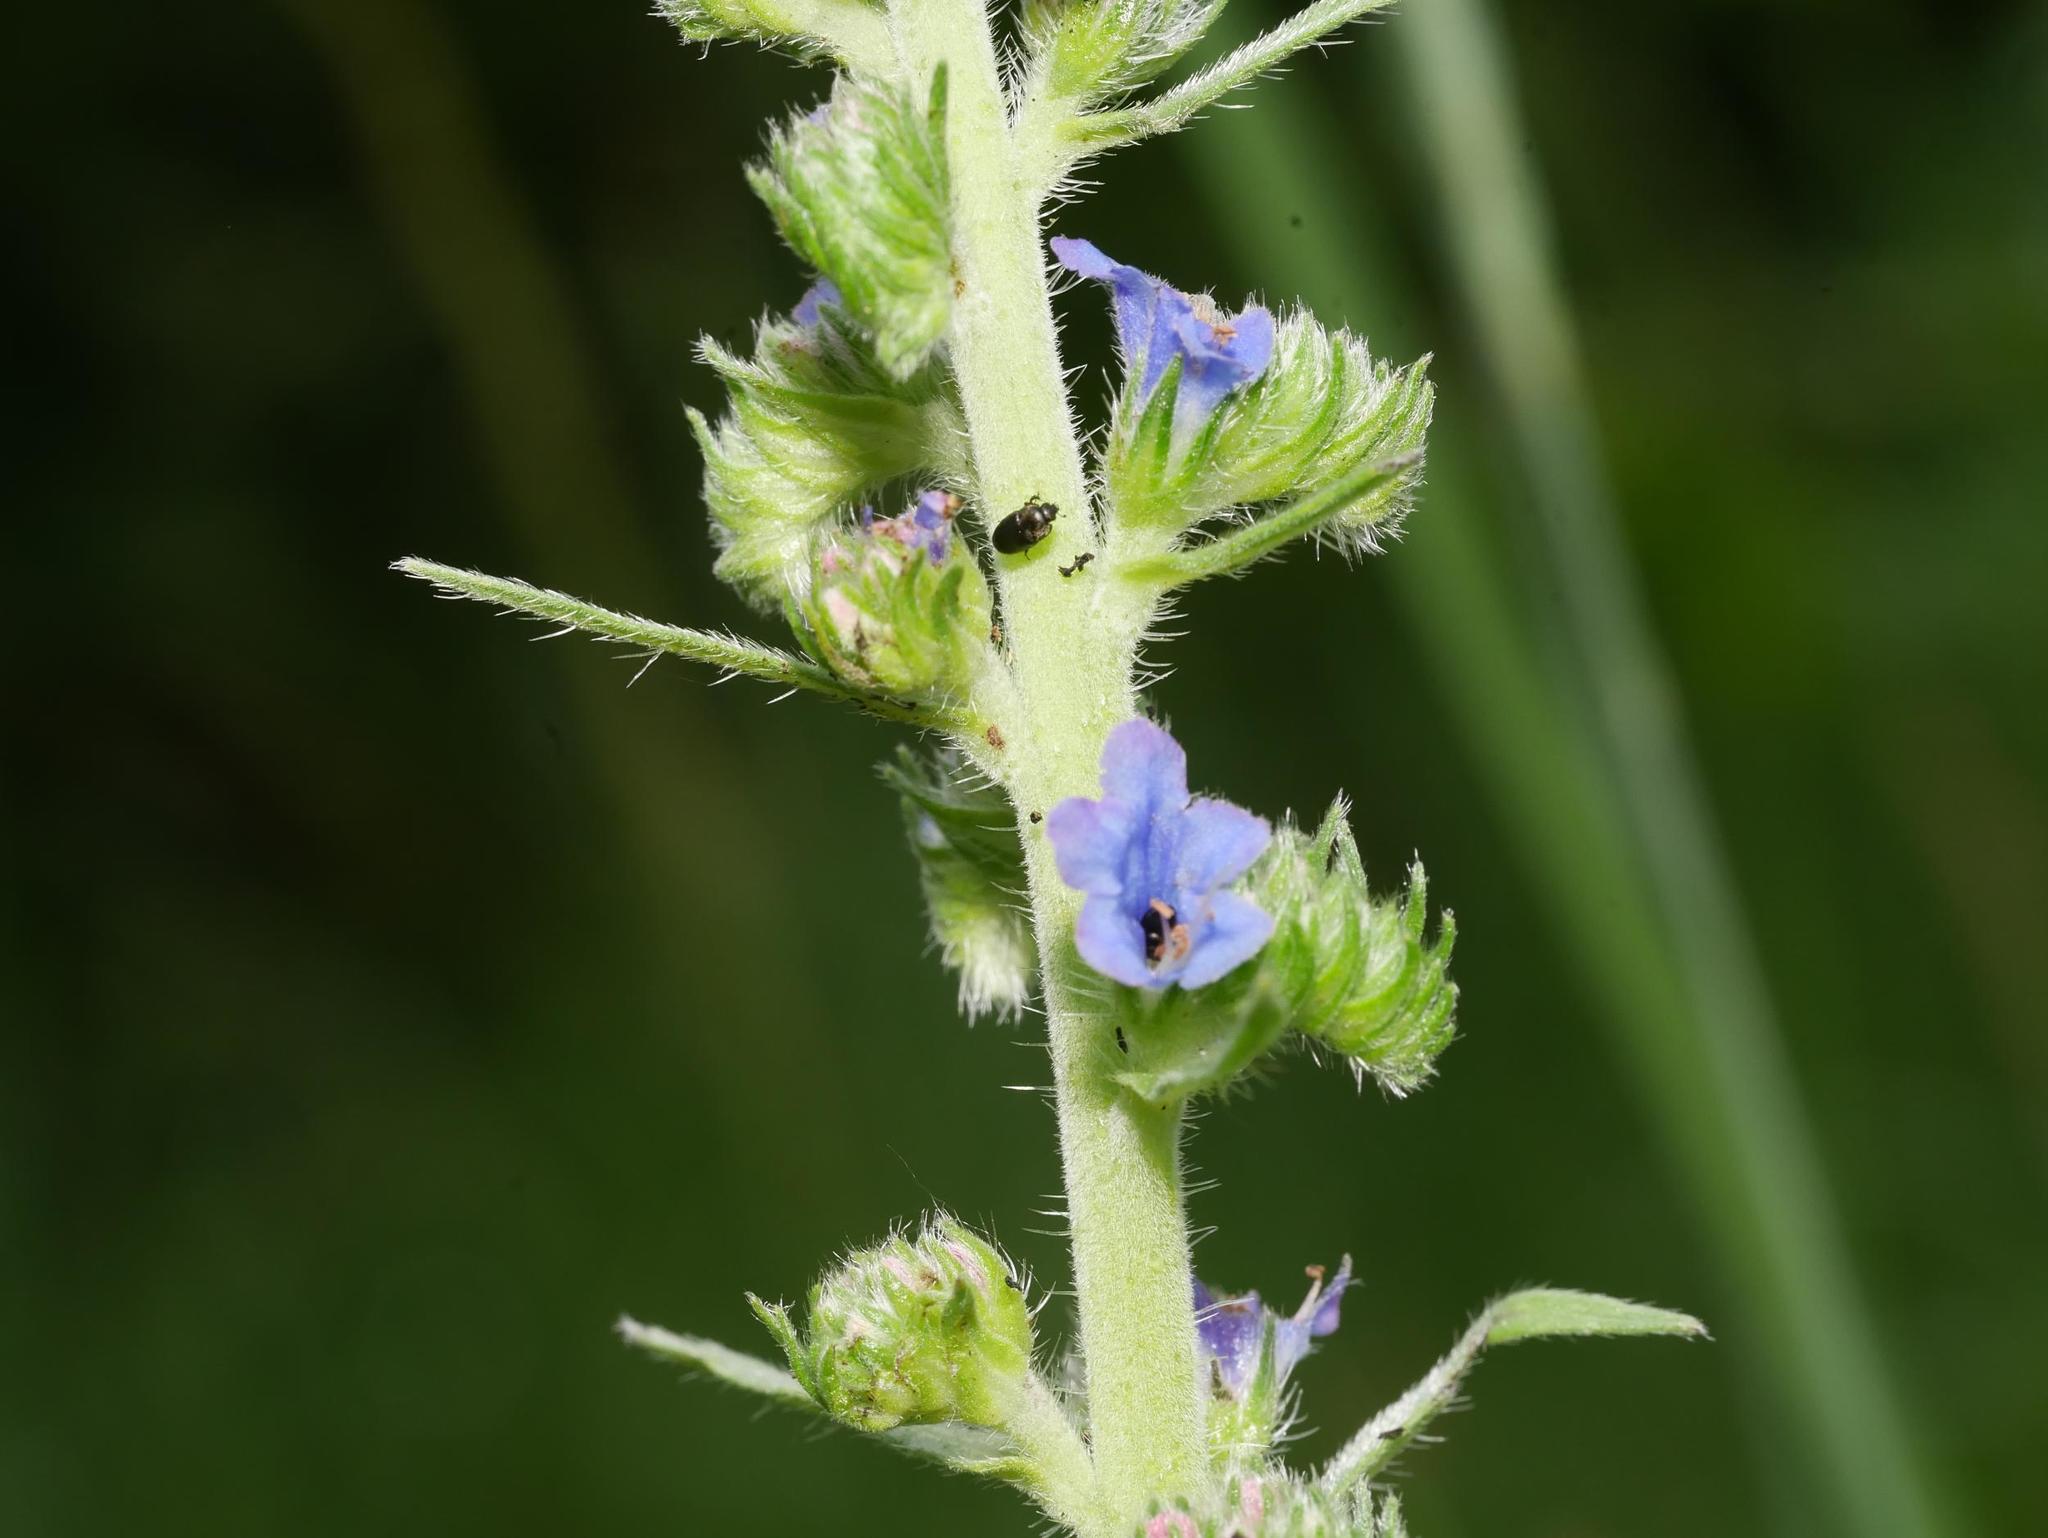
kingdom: Plantae
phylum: Tracheophyta
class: Magnoliopsida
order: Boraginales
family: Boraginaceae
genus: Echium
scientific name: Echium vulgare
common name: Common viper's bugloss
